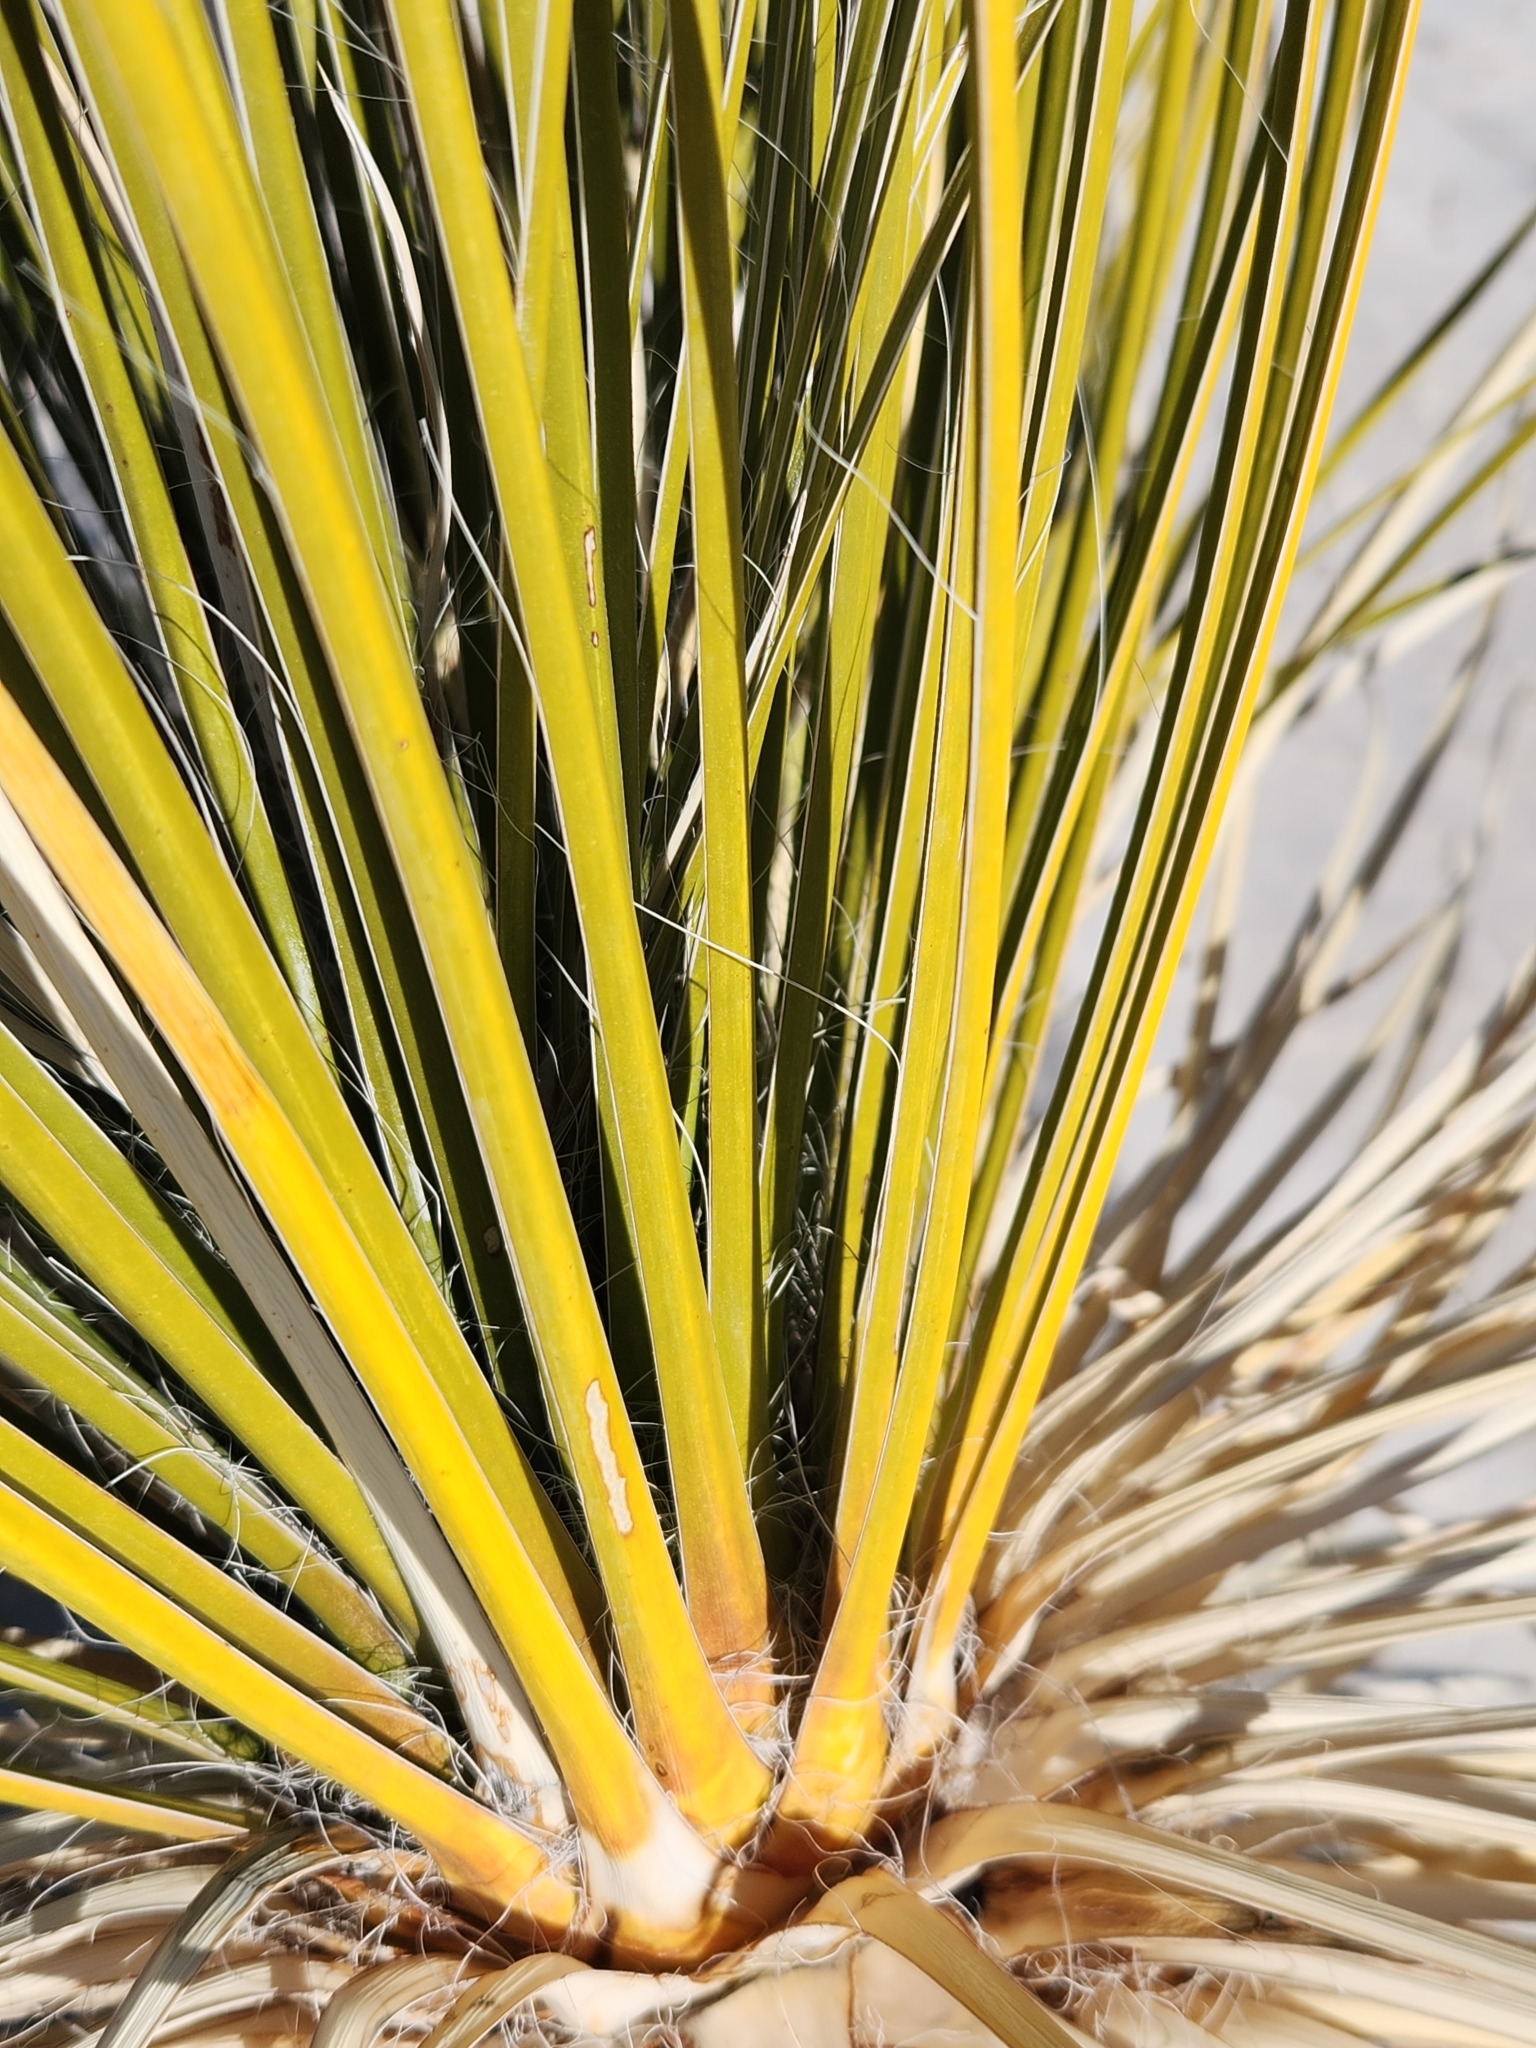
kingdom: Plantae
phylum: Tracheophyta
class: Liliopsida
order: Asparagales
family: Asparagaceae
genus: Yucca
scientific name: Yucca elata
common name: Palmella
